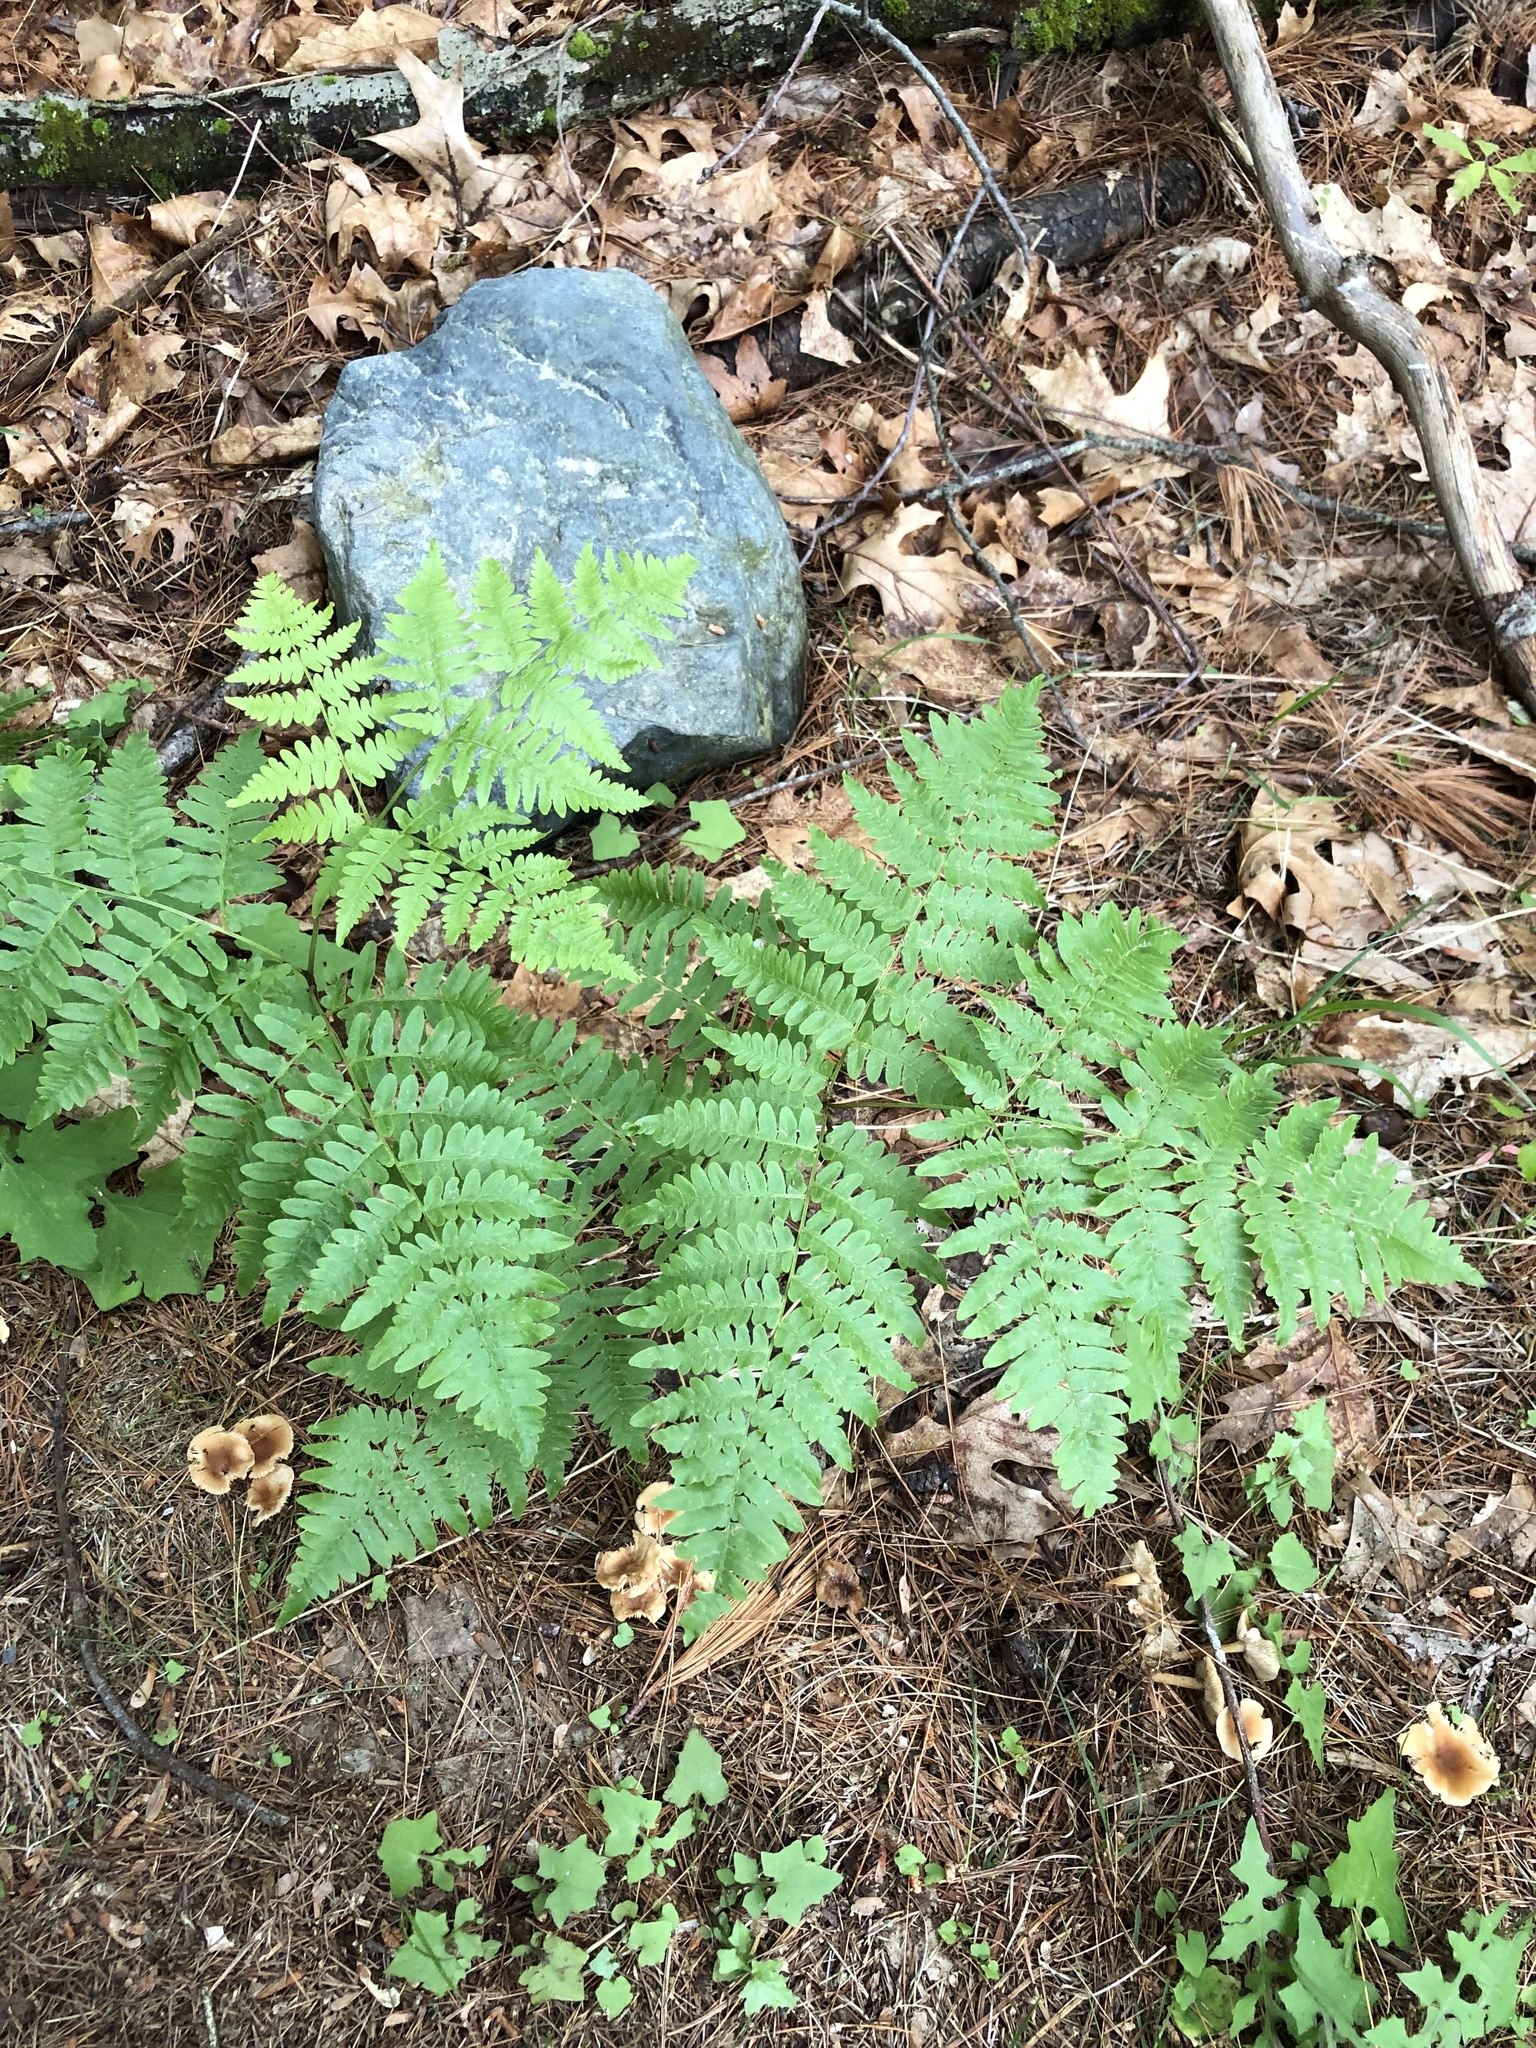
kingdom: Plantae
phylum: Tracheophyta
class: Polypodiopsida
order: Polypodiales
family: Dennstaedtiaceae
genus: Pteridium
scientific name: Pteridium aquilinum
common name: Bracken
